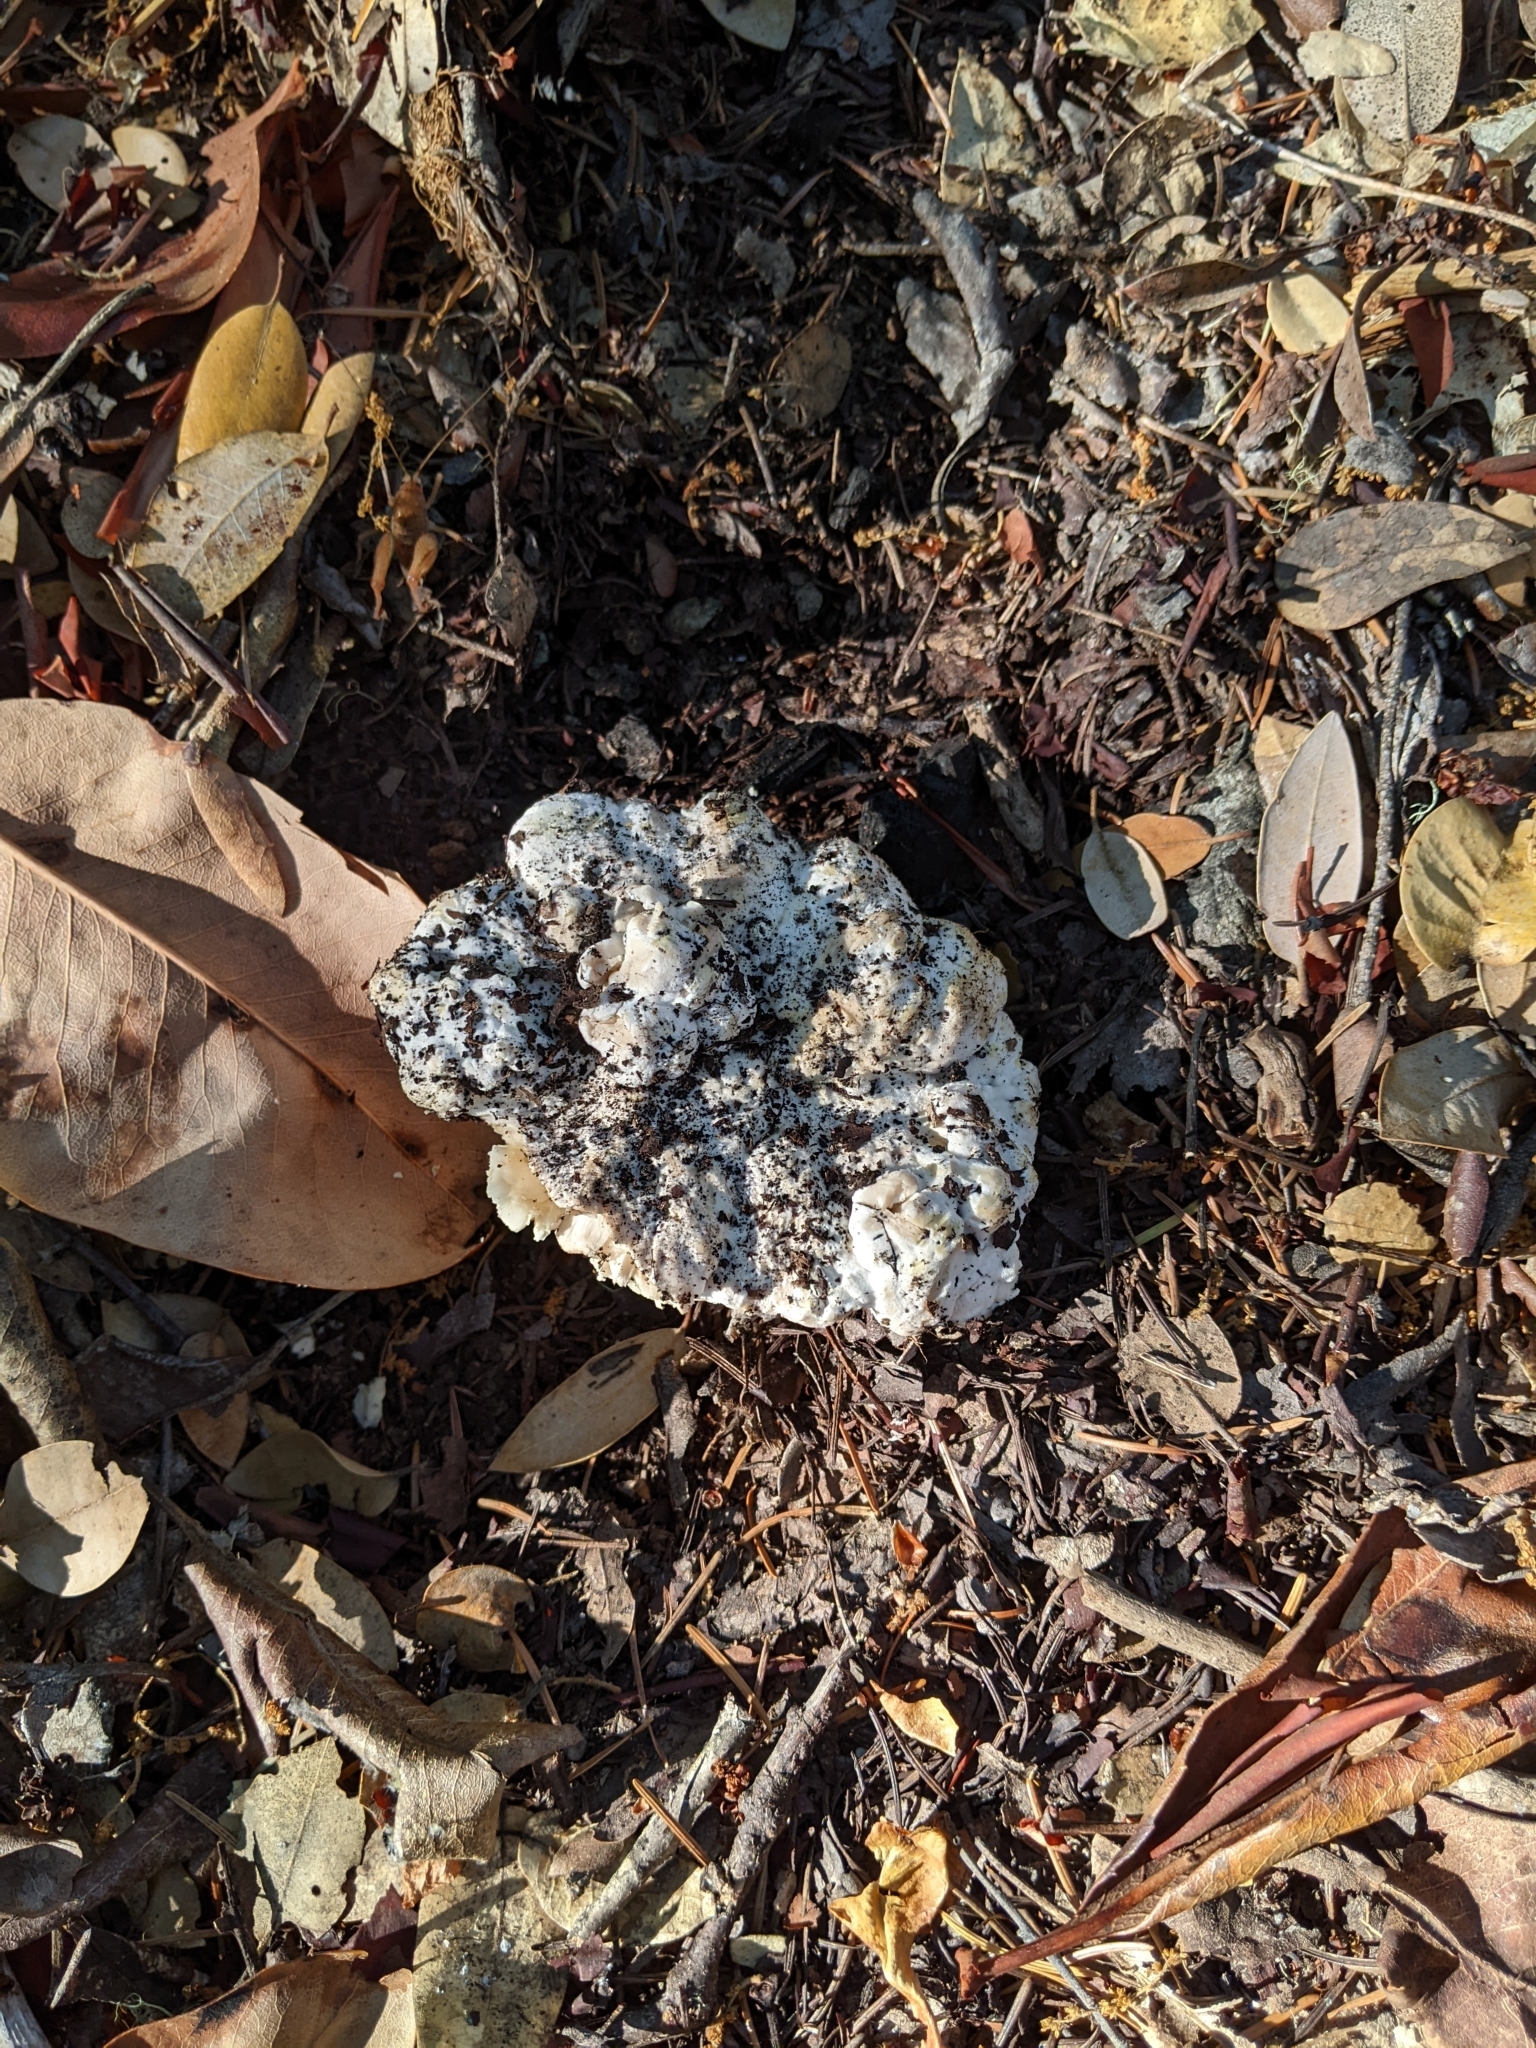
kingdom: Fungi
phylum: Basidiomycota
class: Agaricomycetes
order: Cantharellales
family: Hydnaceae
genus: Cantharellus
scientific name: Cantharellus subalbidus
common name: White chanterelle
